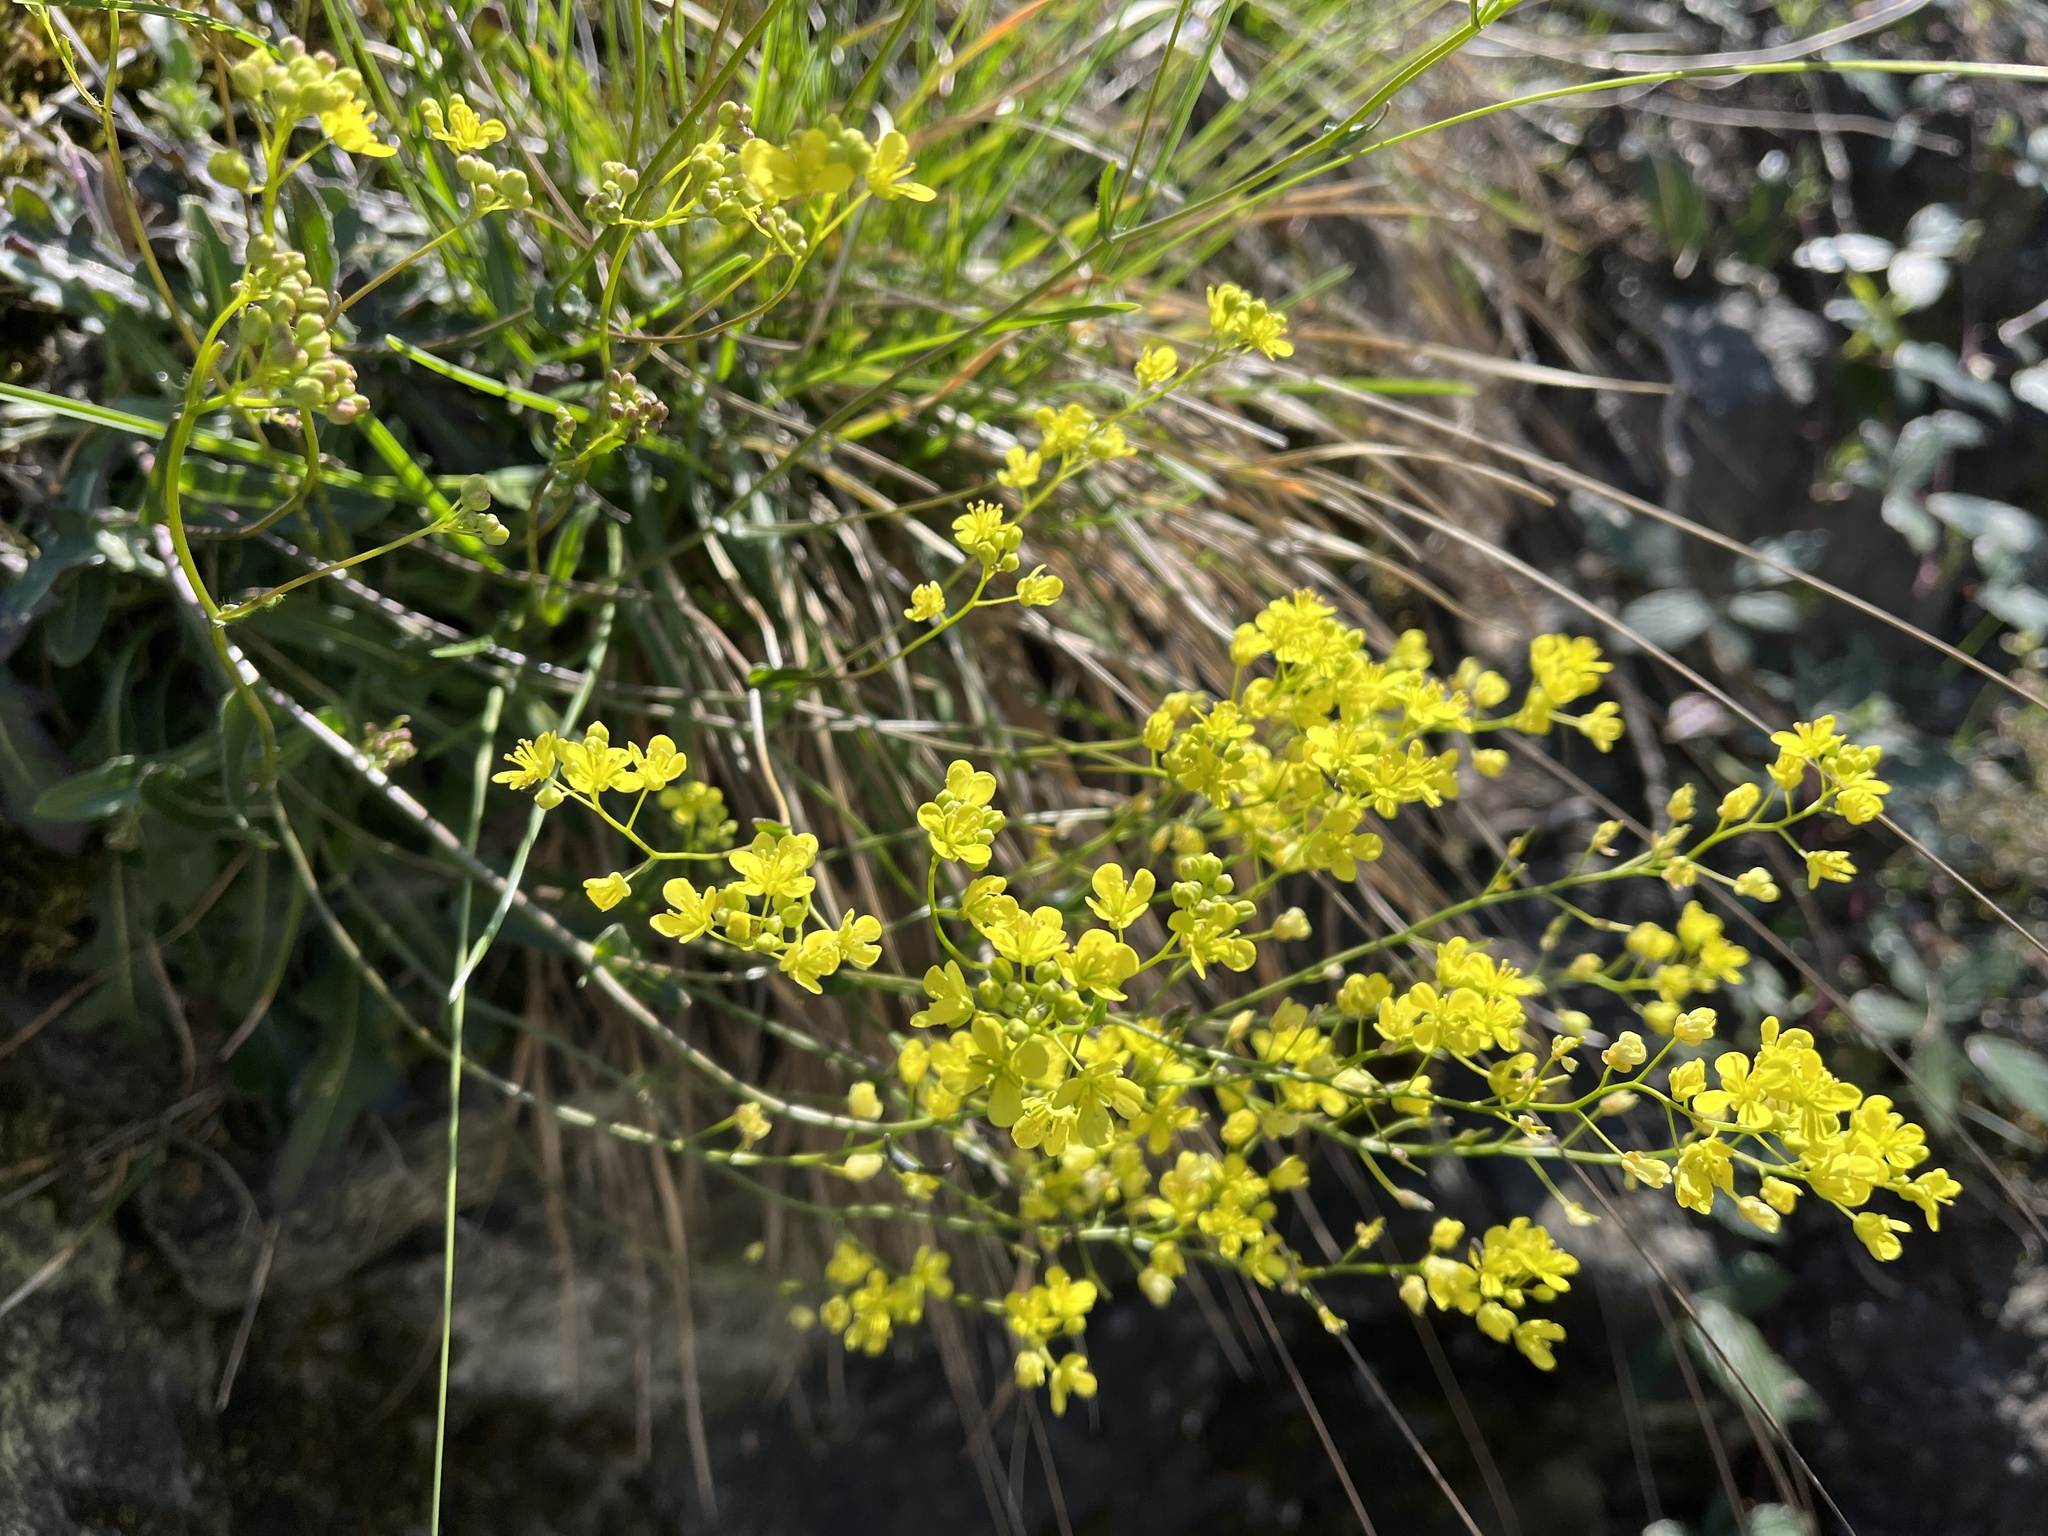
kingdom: Plantae
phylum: Tracheophyta
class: Magnoliopsida
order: Brassicales
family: Brassicaceae
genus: Biscutella
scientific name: Biscutella laevigata
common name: Buckler mustard
